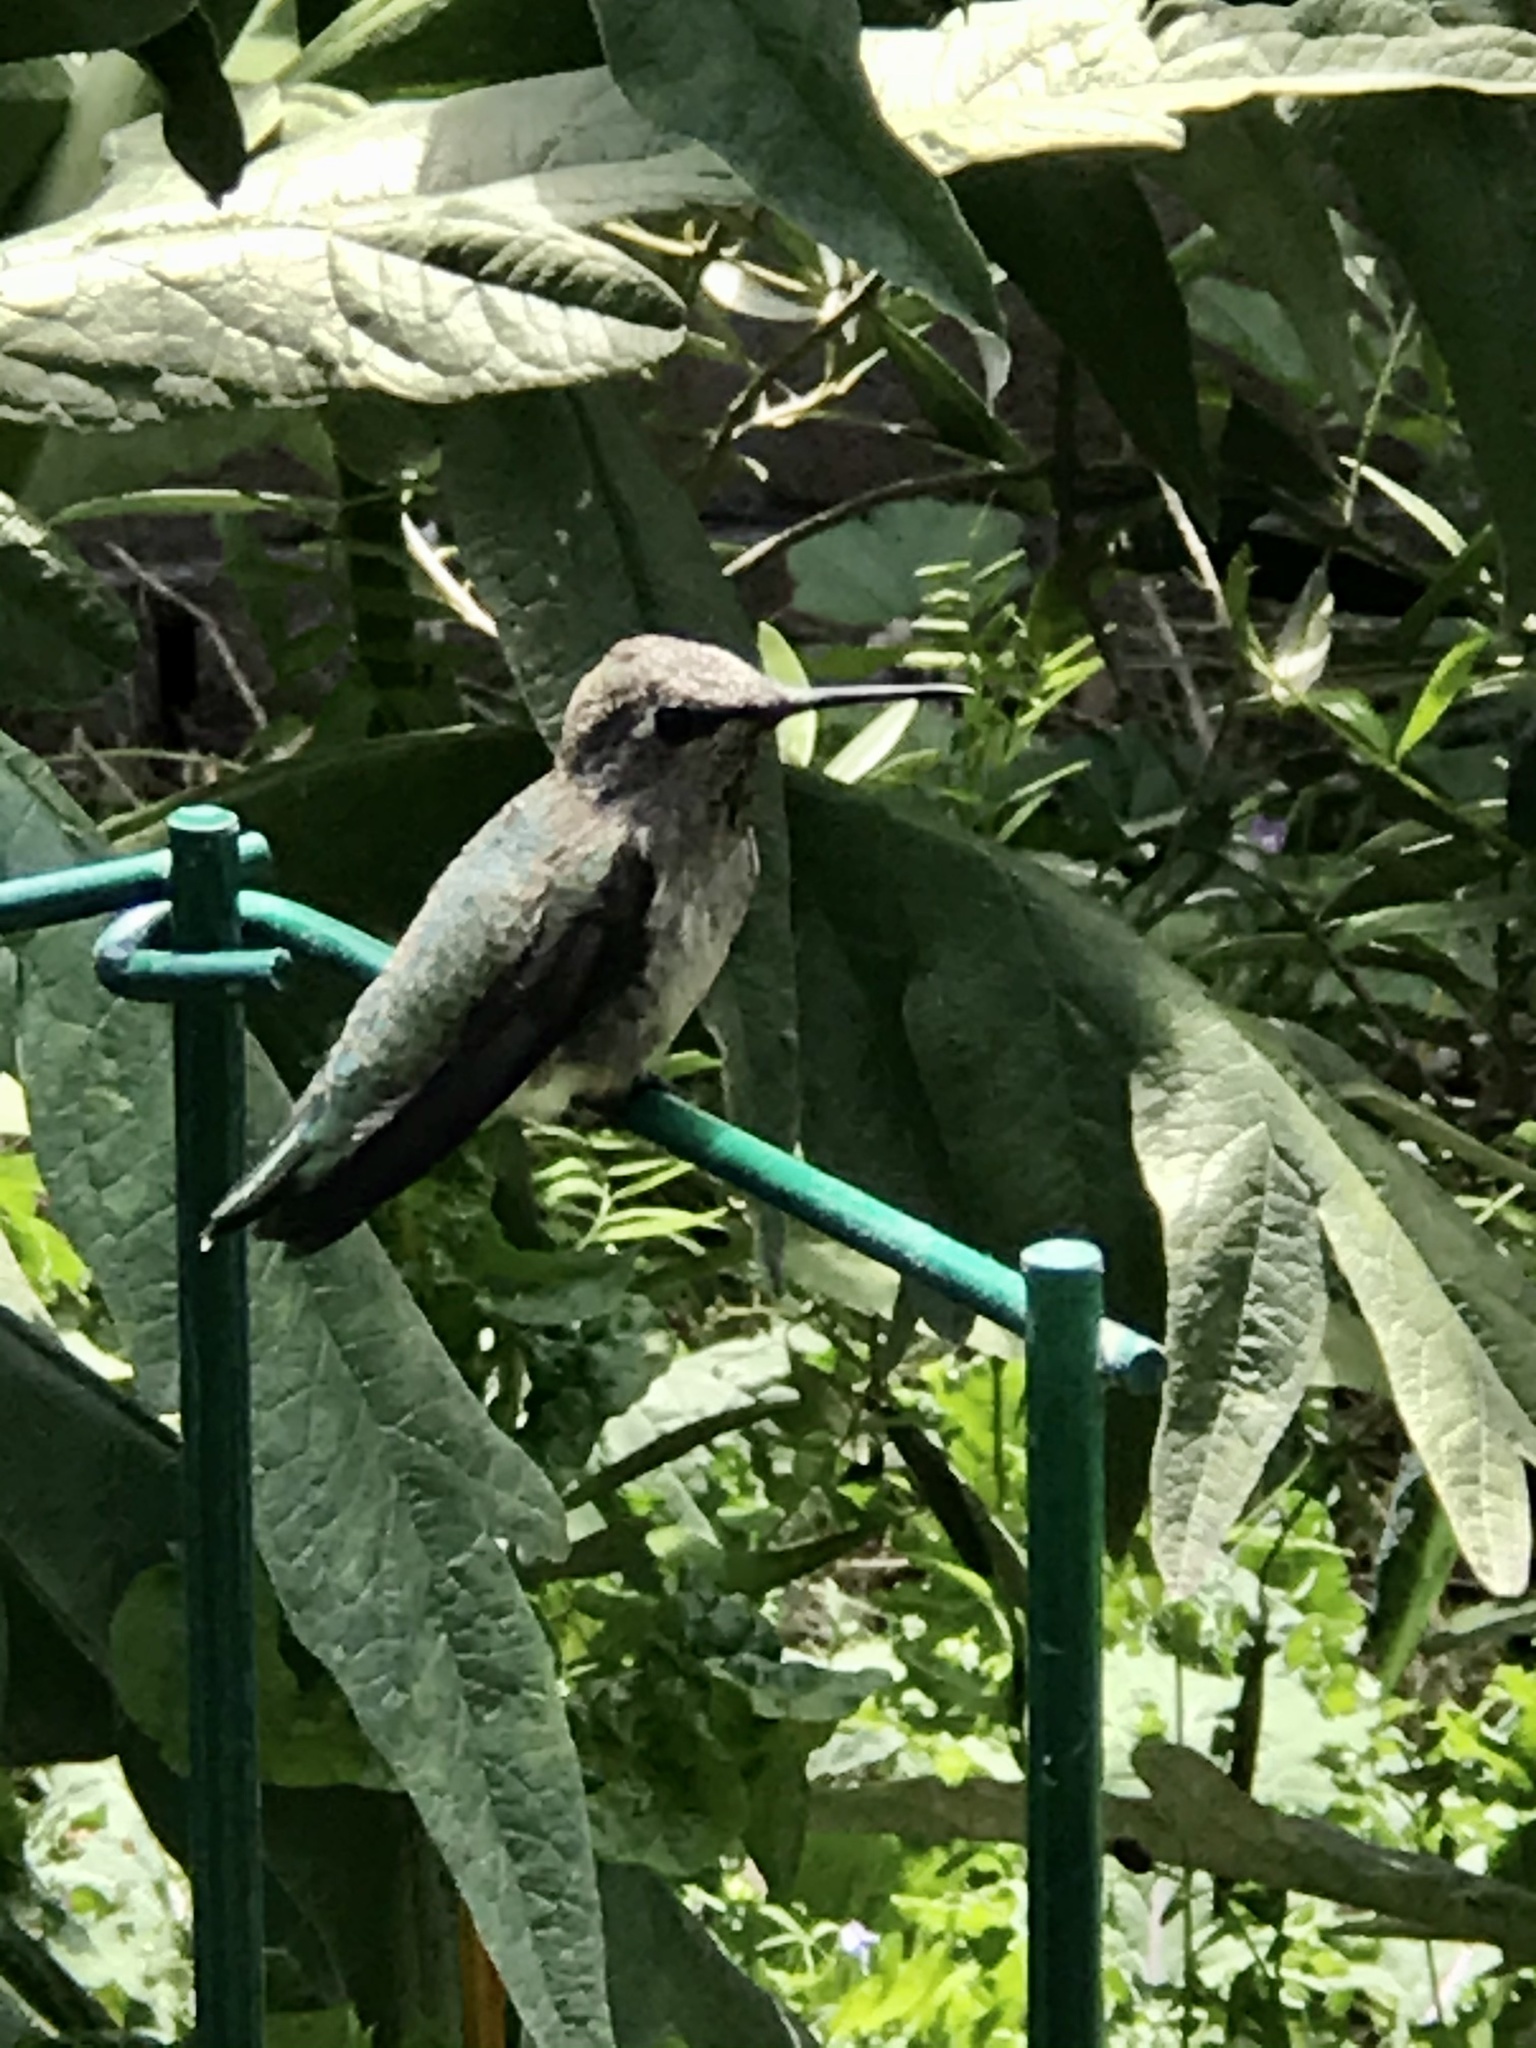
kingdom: Animalia
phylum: Chordata
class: Aves
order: Apodiformes
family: Trochilidae
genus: Calypte
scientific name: Calypte anna
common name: Anna's hummingbird
